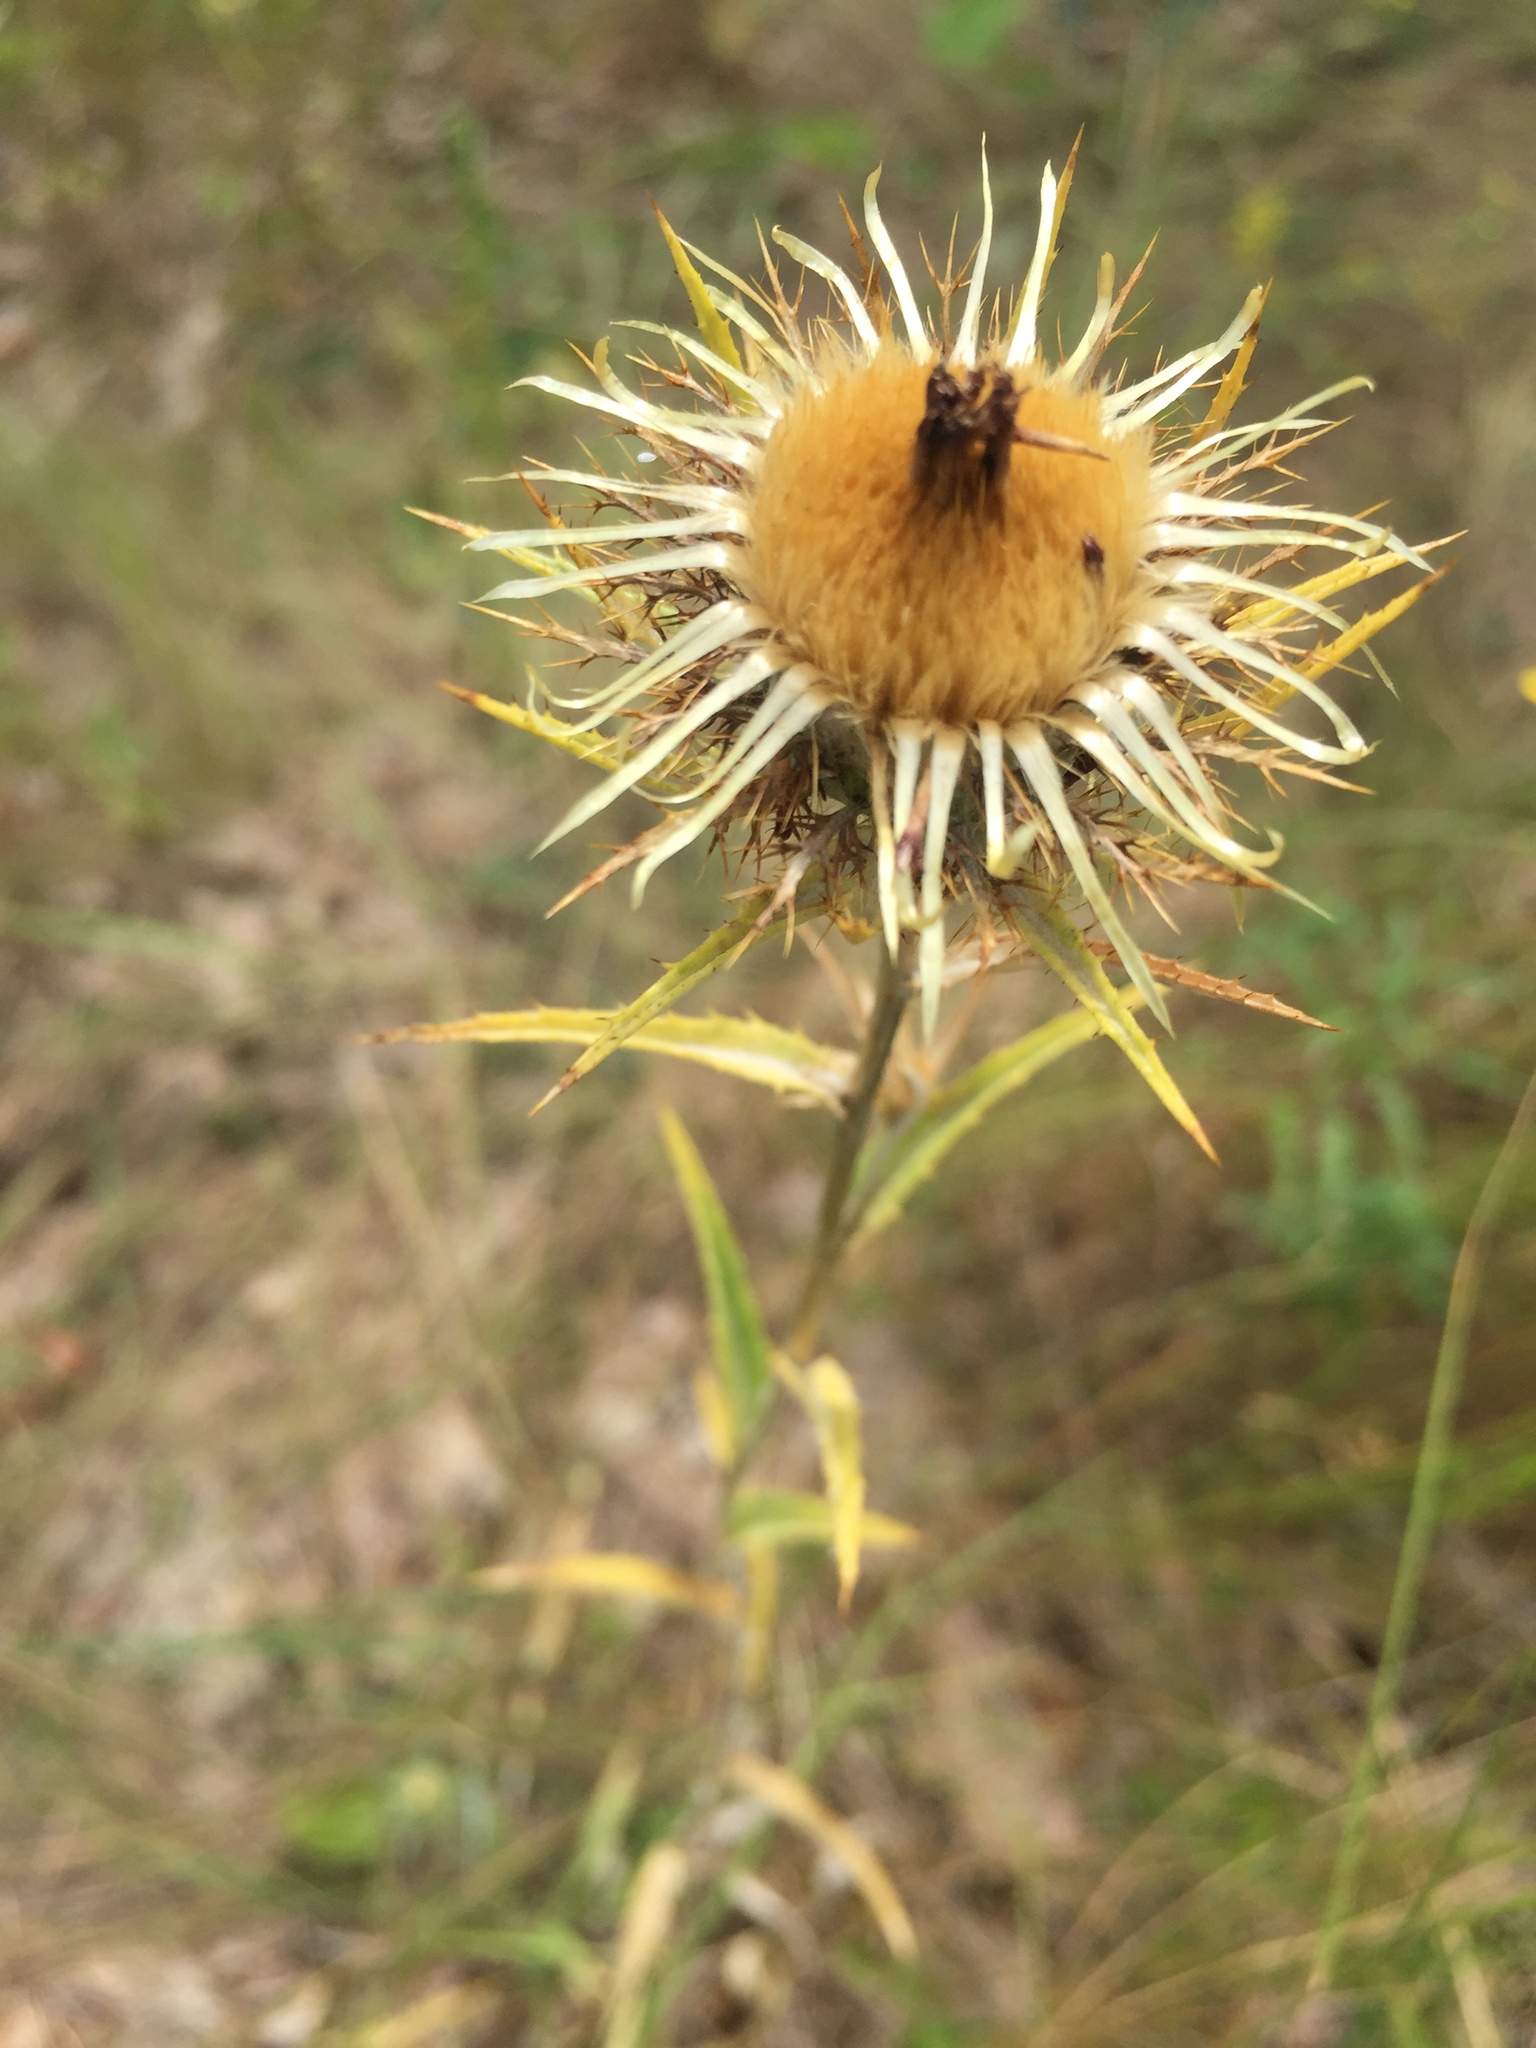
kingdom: Plantae
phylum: Tracheophyta
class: Magnoliopsida
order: Asterales
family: Asteraceae
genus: Carlina
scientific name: Carlina biebersteinii
